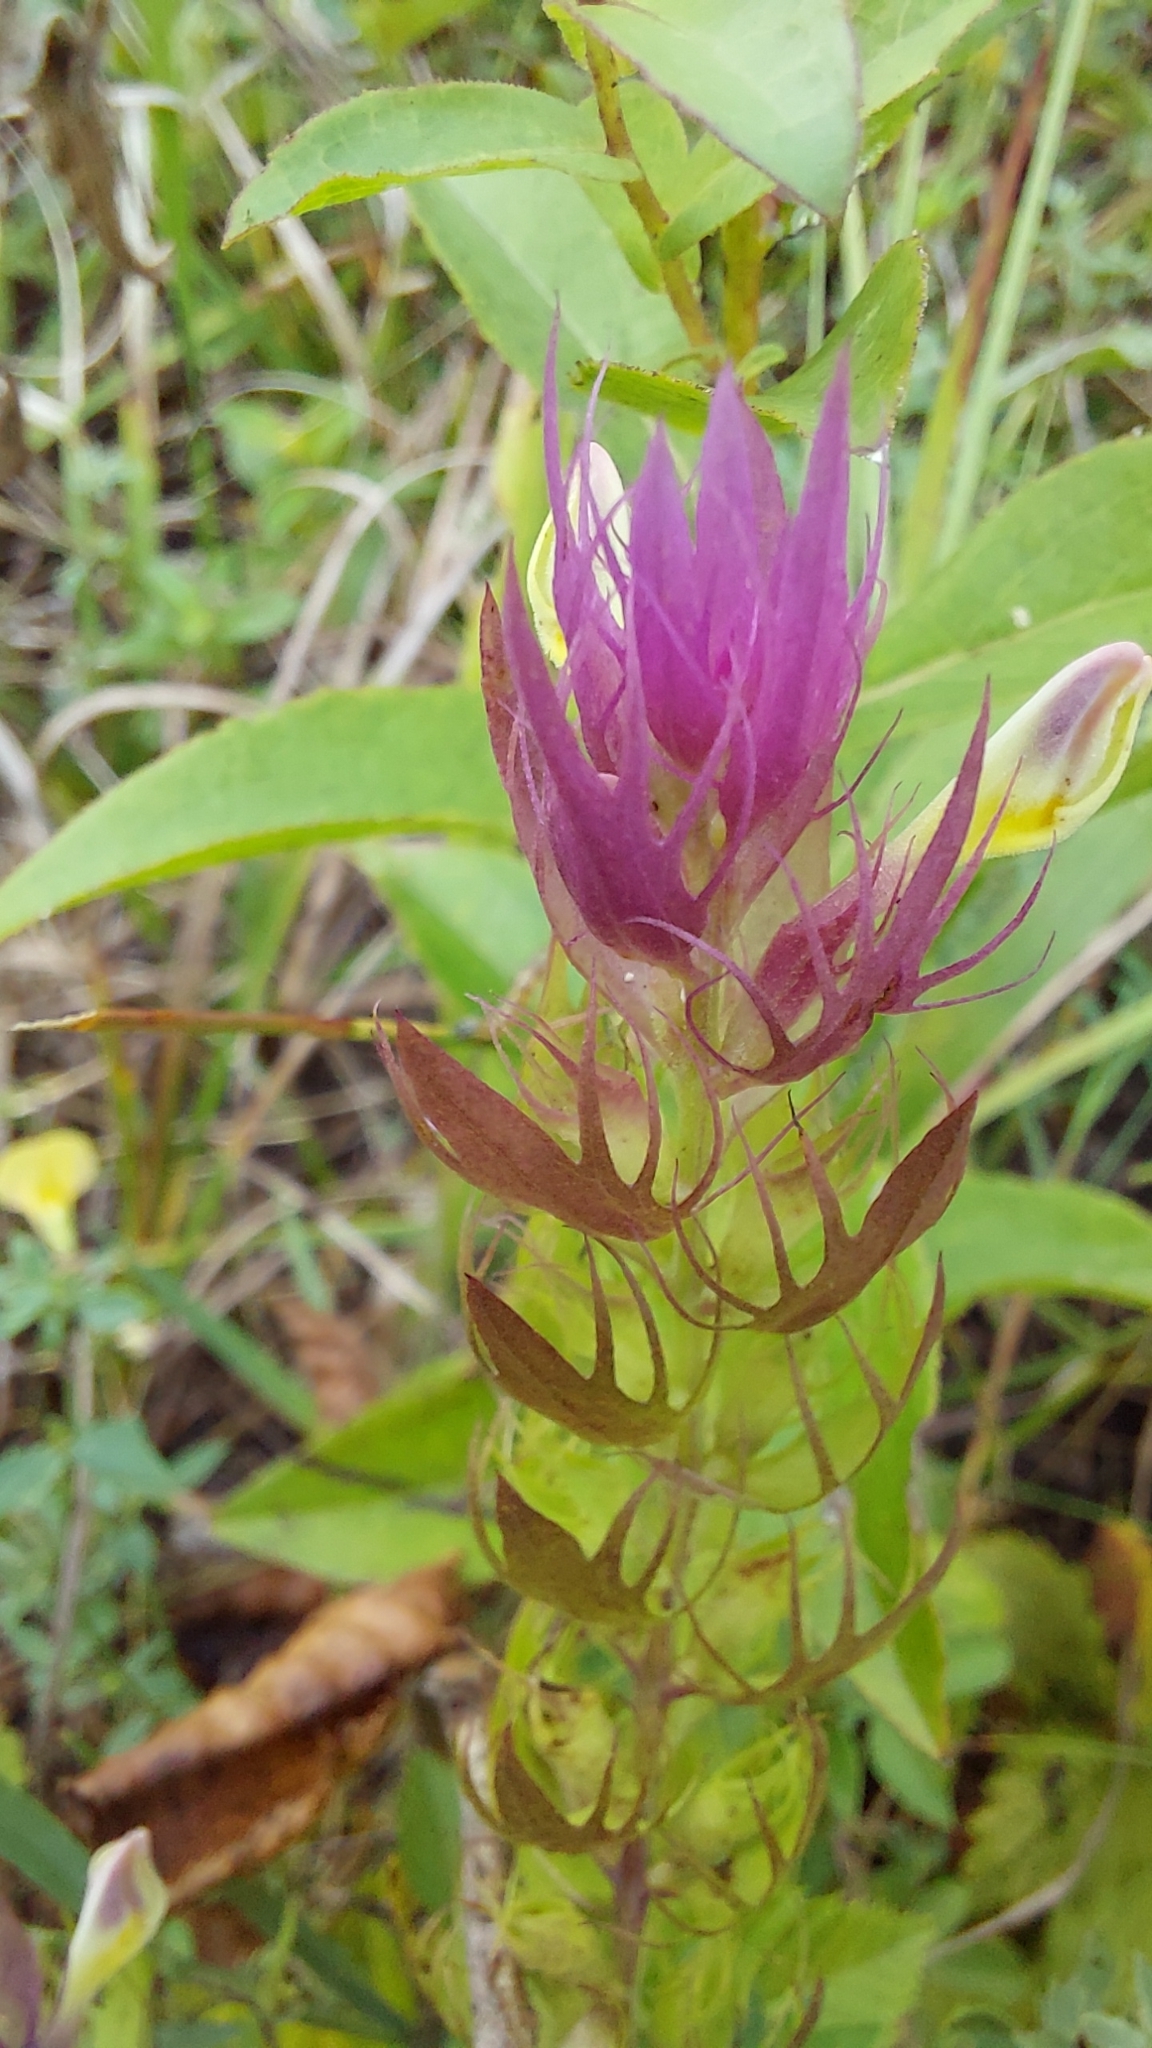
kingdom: Plantae
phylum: Tracheophyta
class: Magnoliopsida
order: Lamiales
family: Orobanchaceae
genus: Melampyrum
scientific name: Melampyrum arvense
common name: Field cow-wheat
